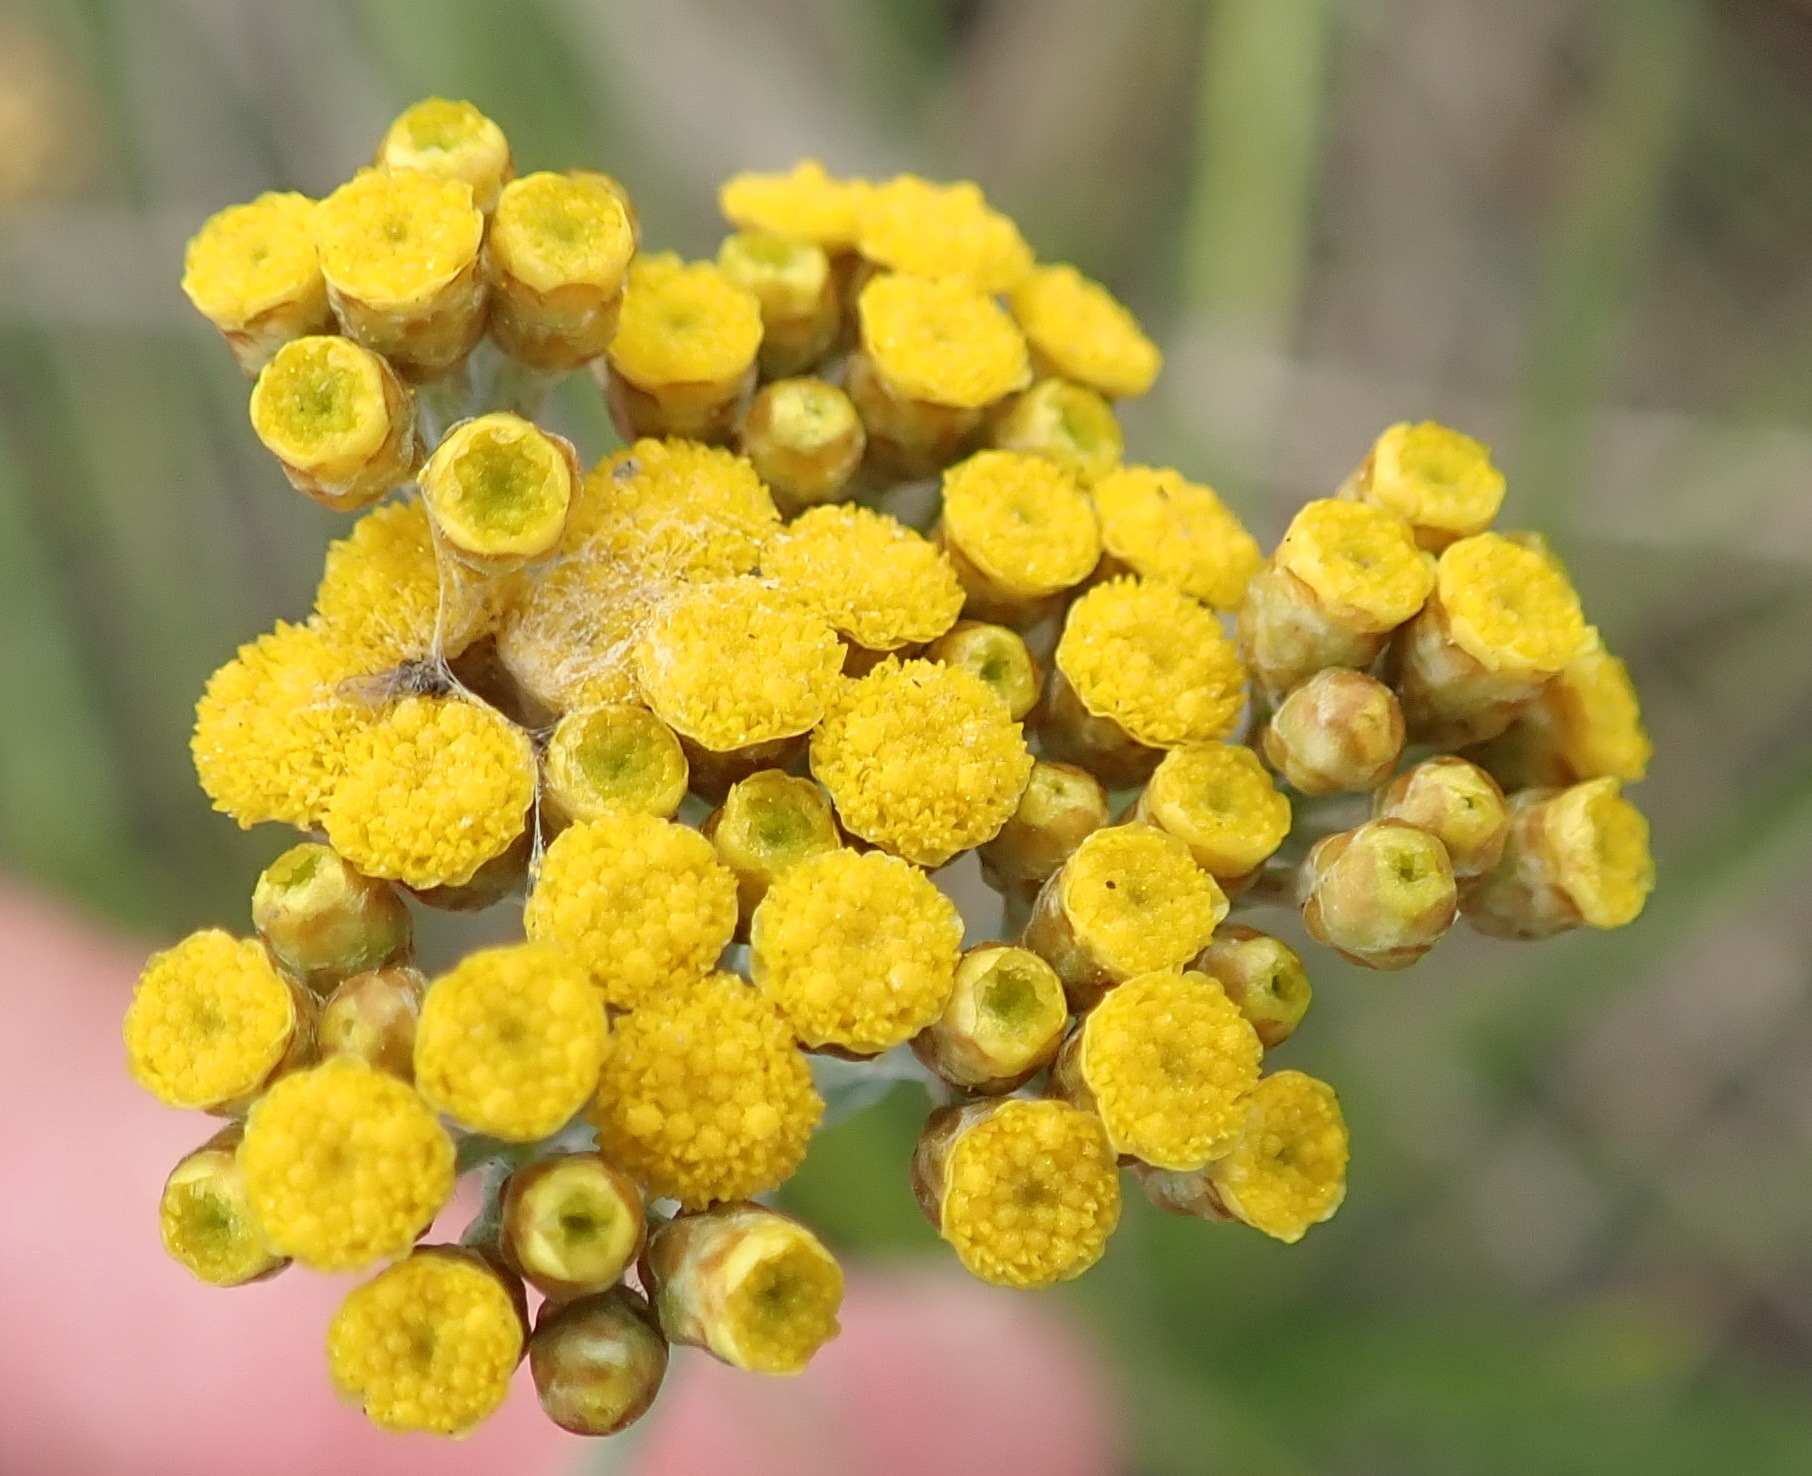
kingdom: Plantae
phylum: Tracheophyta
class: Magnoliopsida
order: Asterales
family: Asteraceae
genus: Helichrysum
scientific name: Helichrysum cymosum
